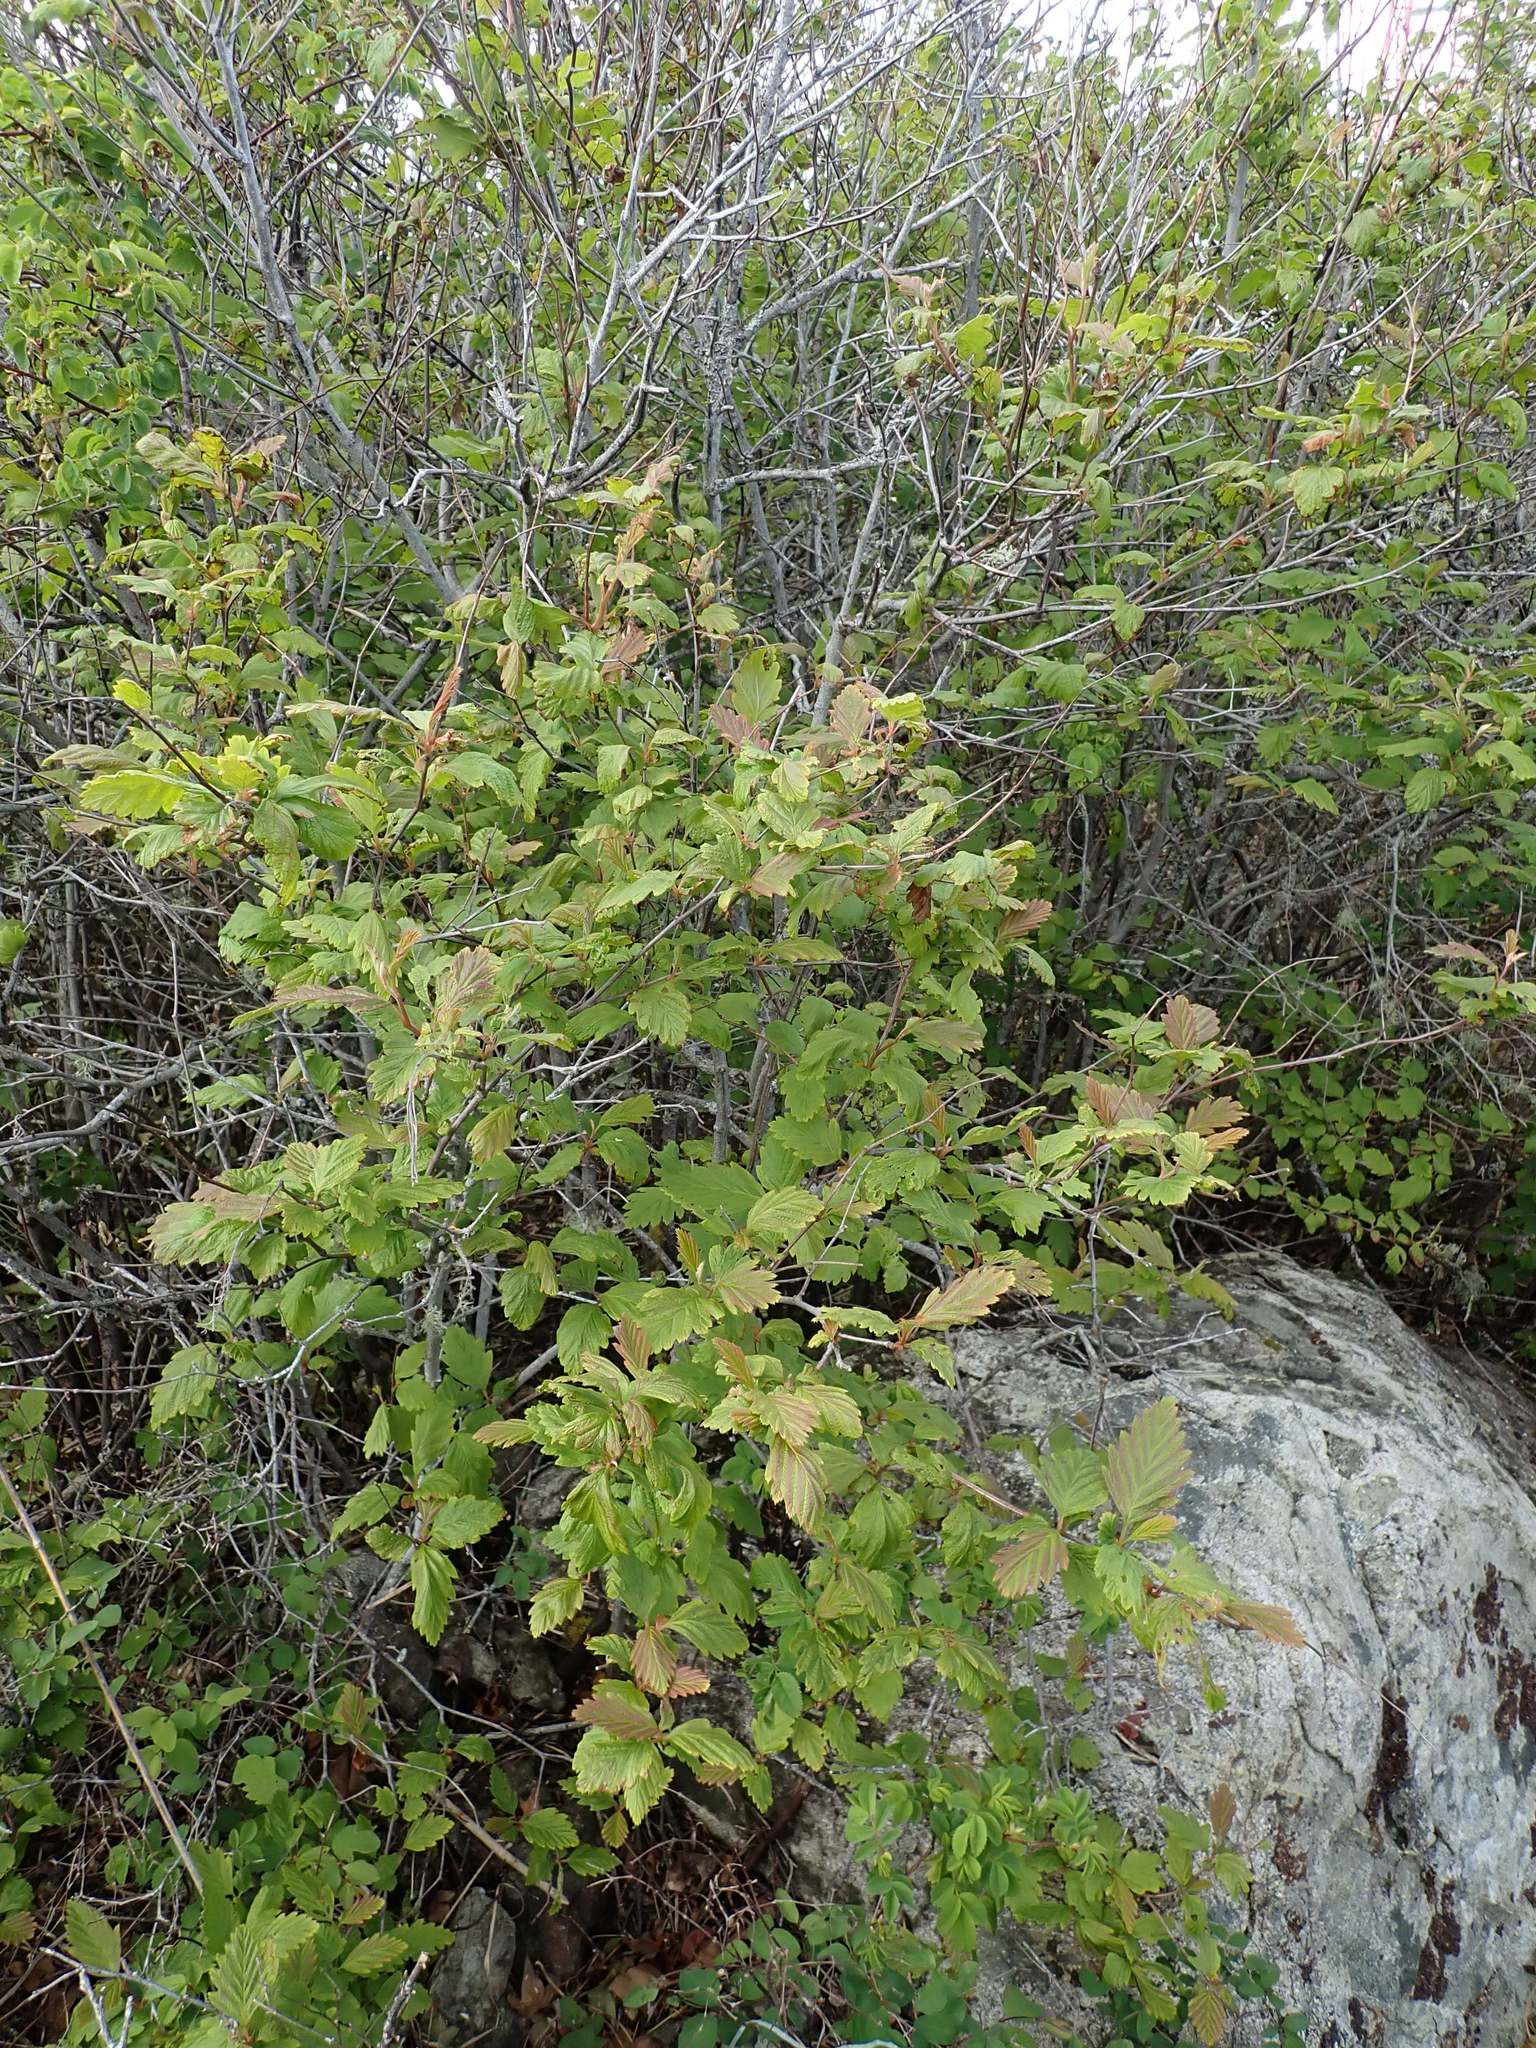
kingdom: Plantae
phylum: Tracheophyta
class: Magnoliopsida
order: Rosales
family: Rosaceae
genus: Holodiscus
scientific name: Holodiscus discolor
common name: Oceanspray
